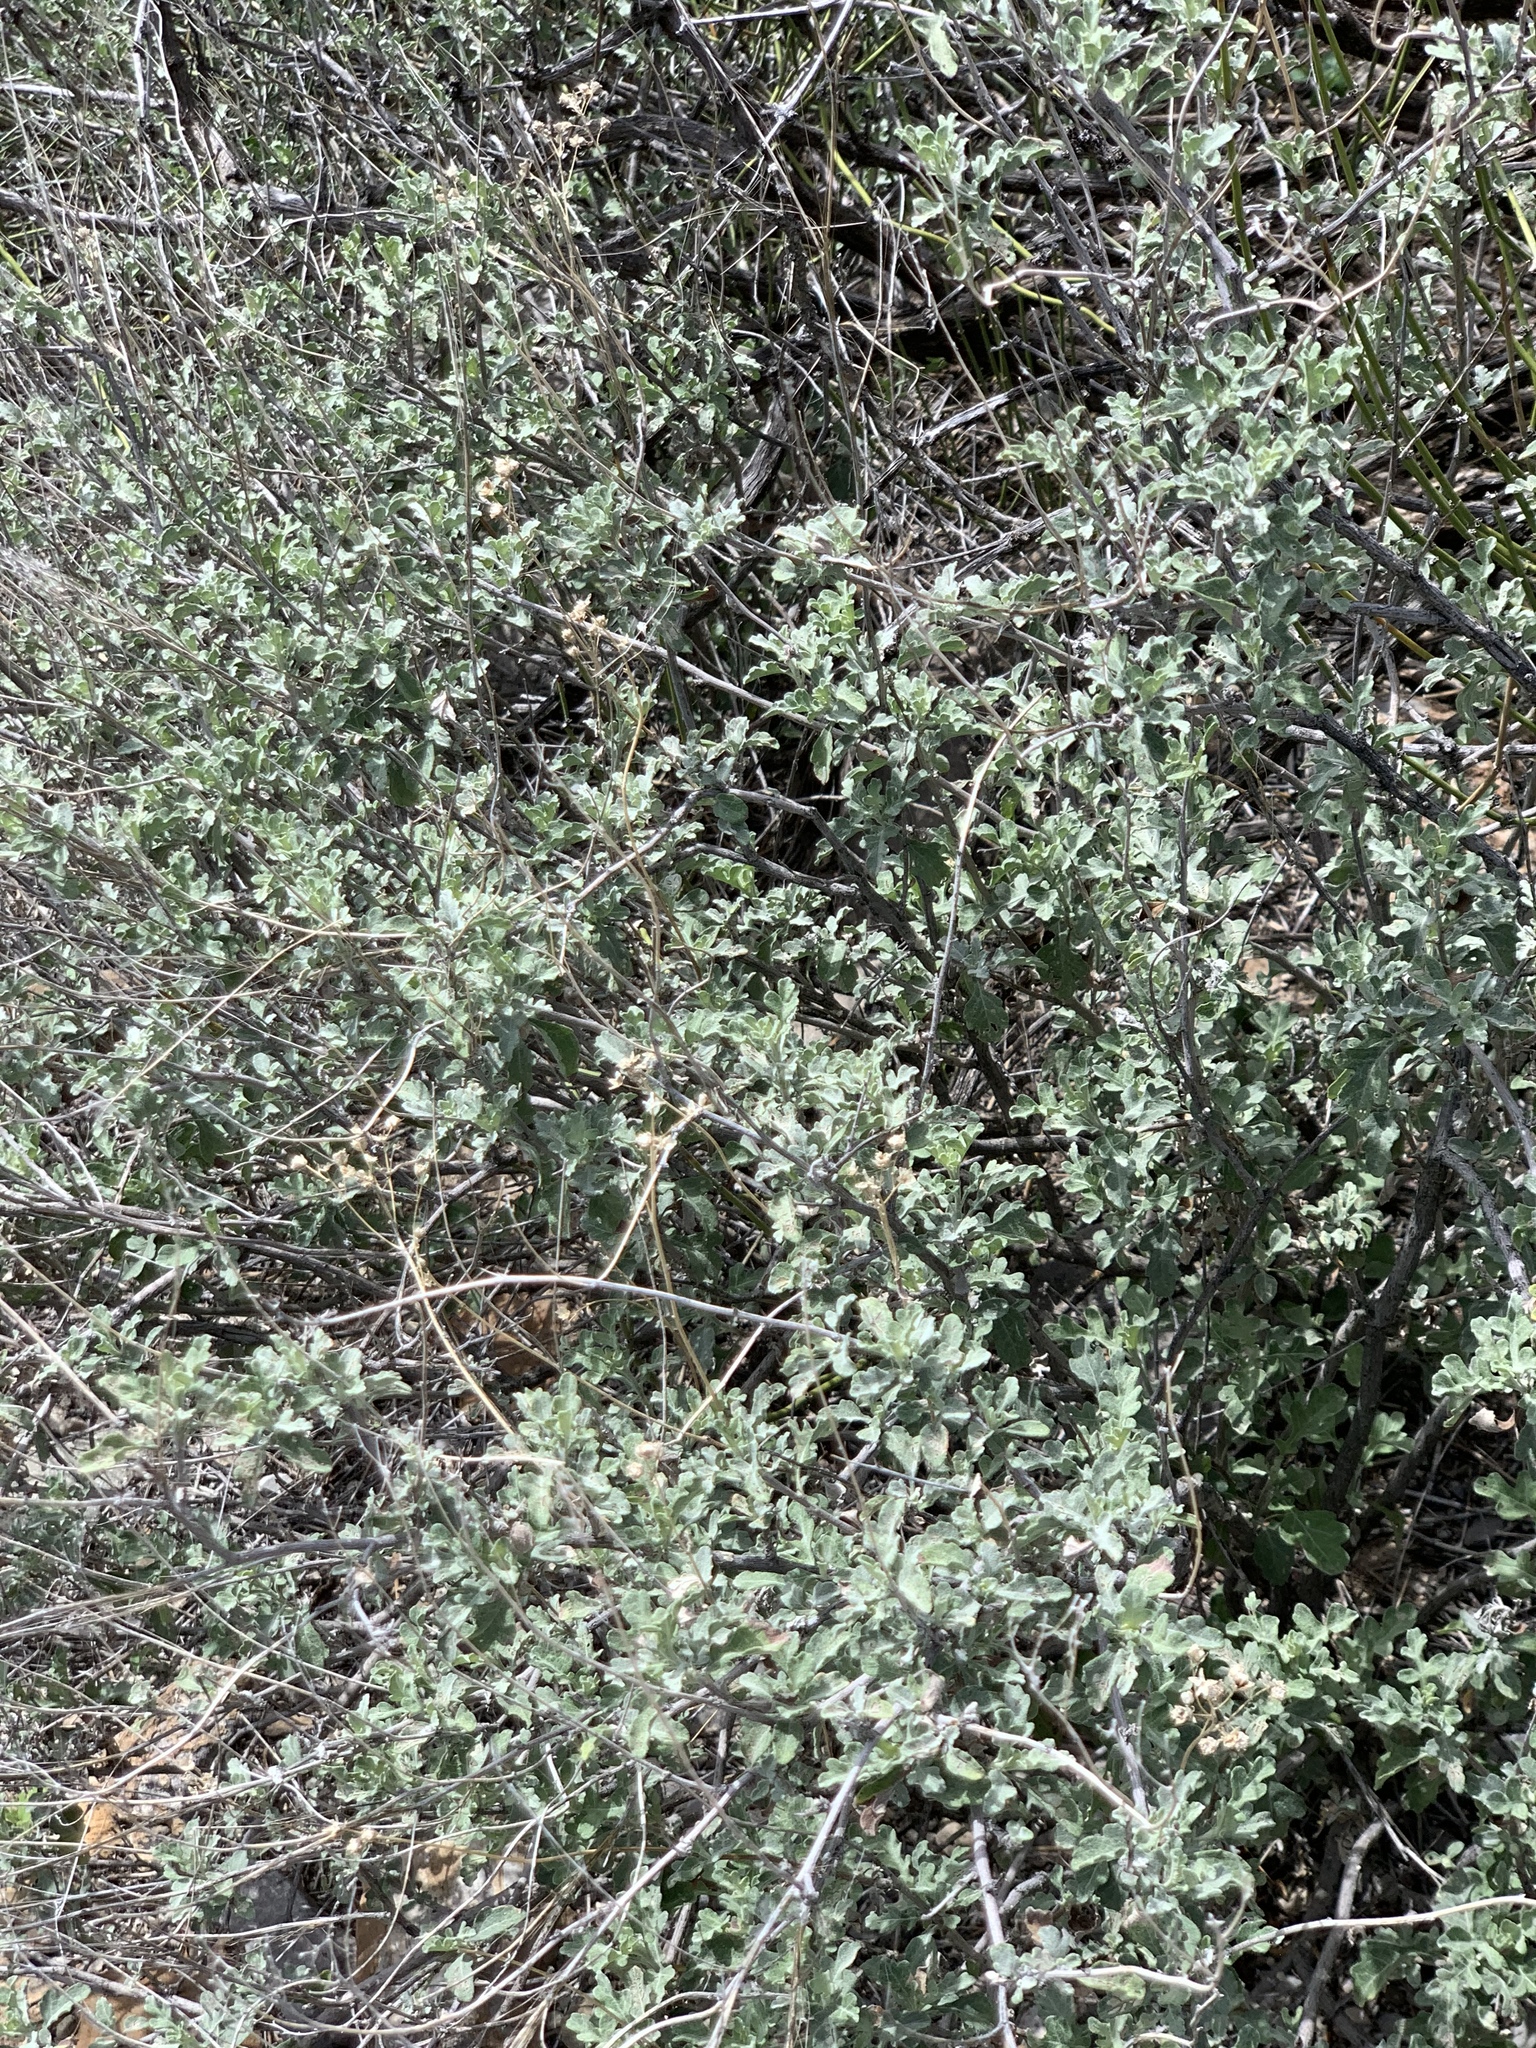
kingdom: Plantae
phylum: Tracheophyta
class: Magnoliopsida
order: Asterales
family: Asteraceae
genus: Parthenium
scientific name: Parthenium incanum
